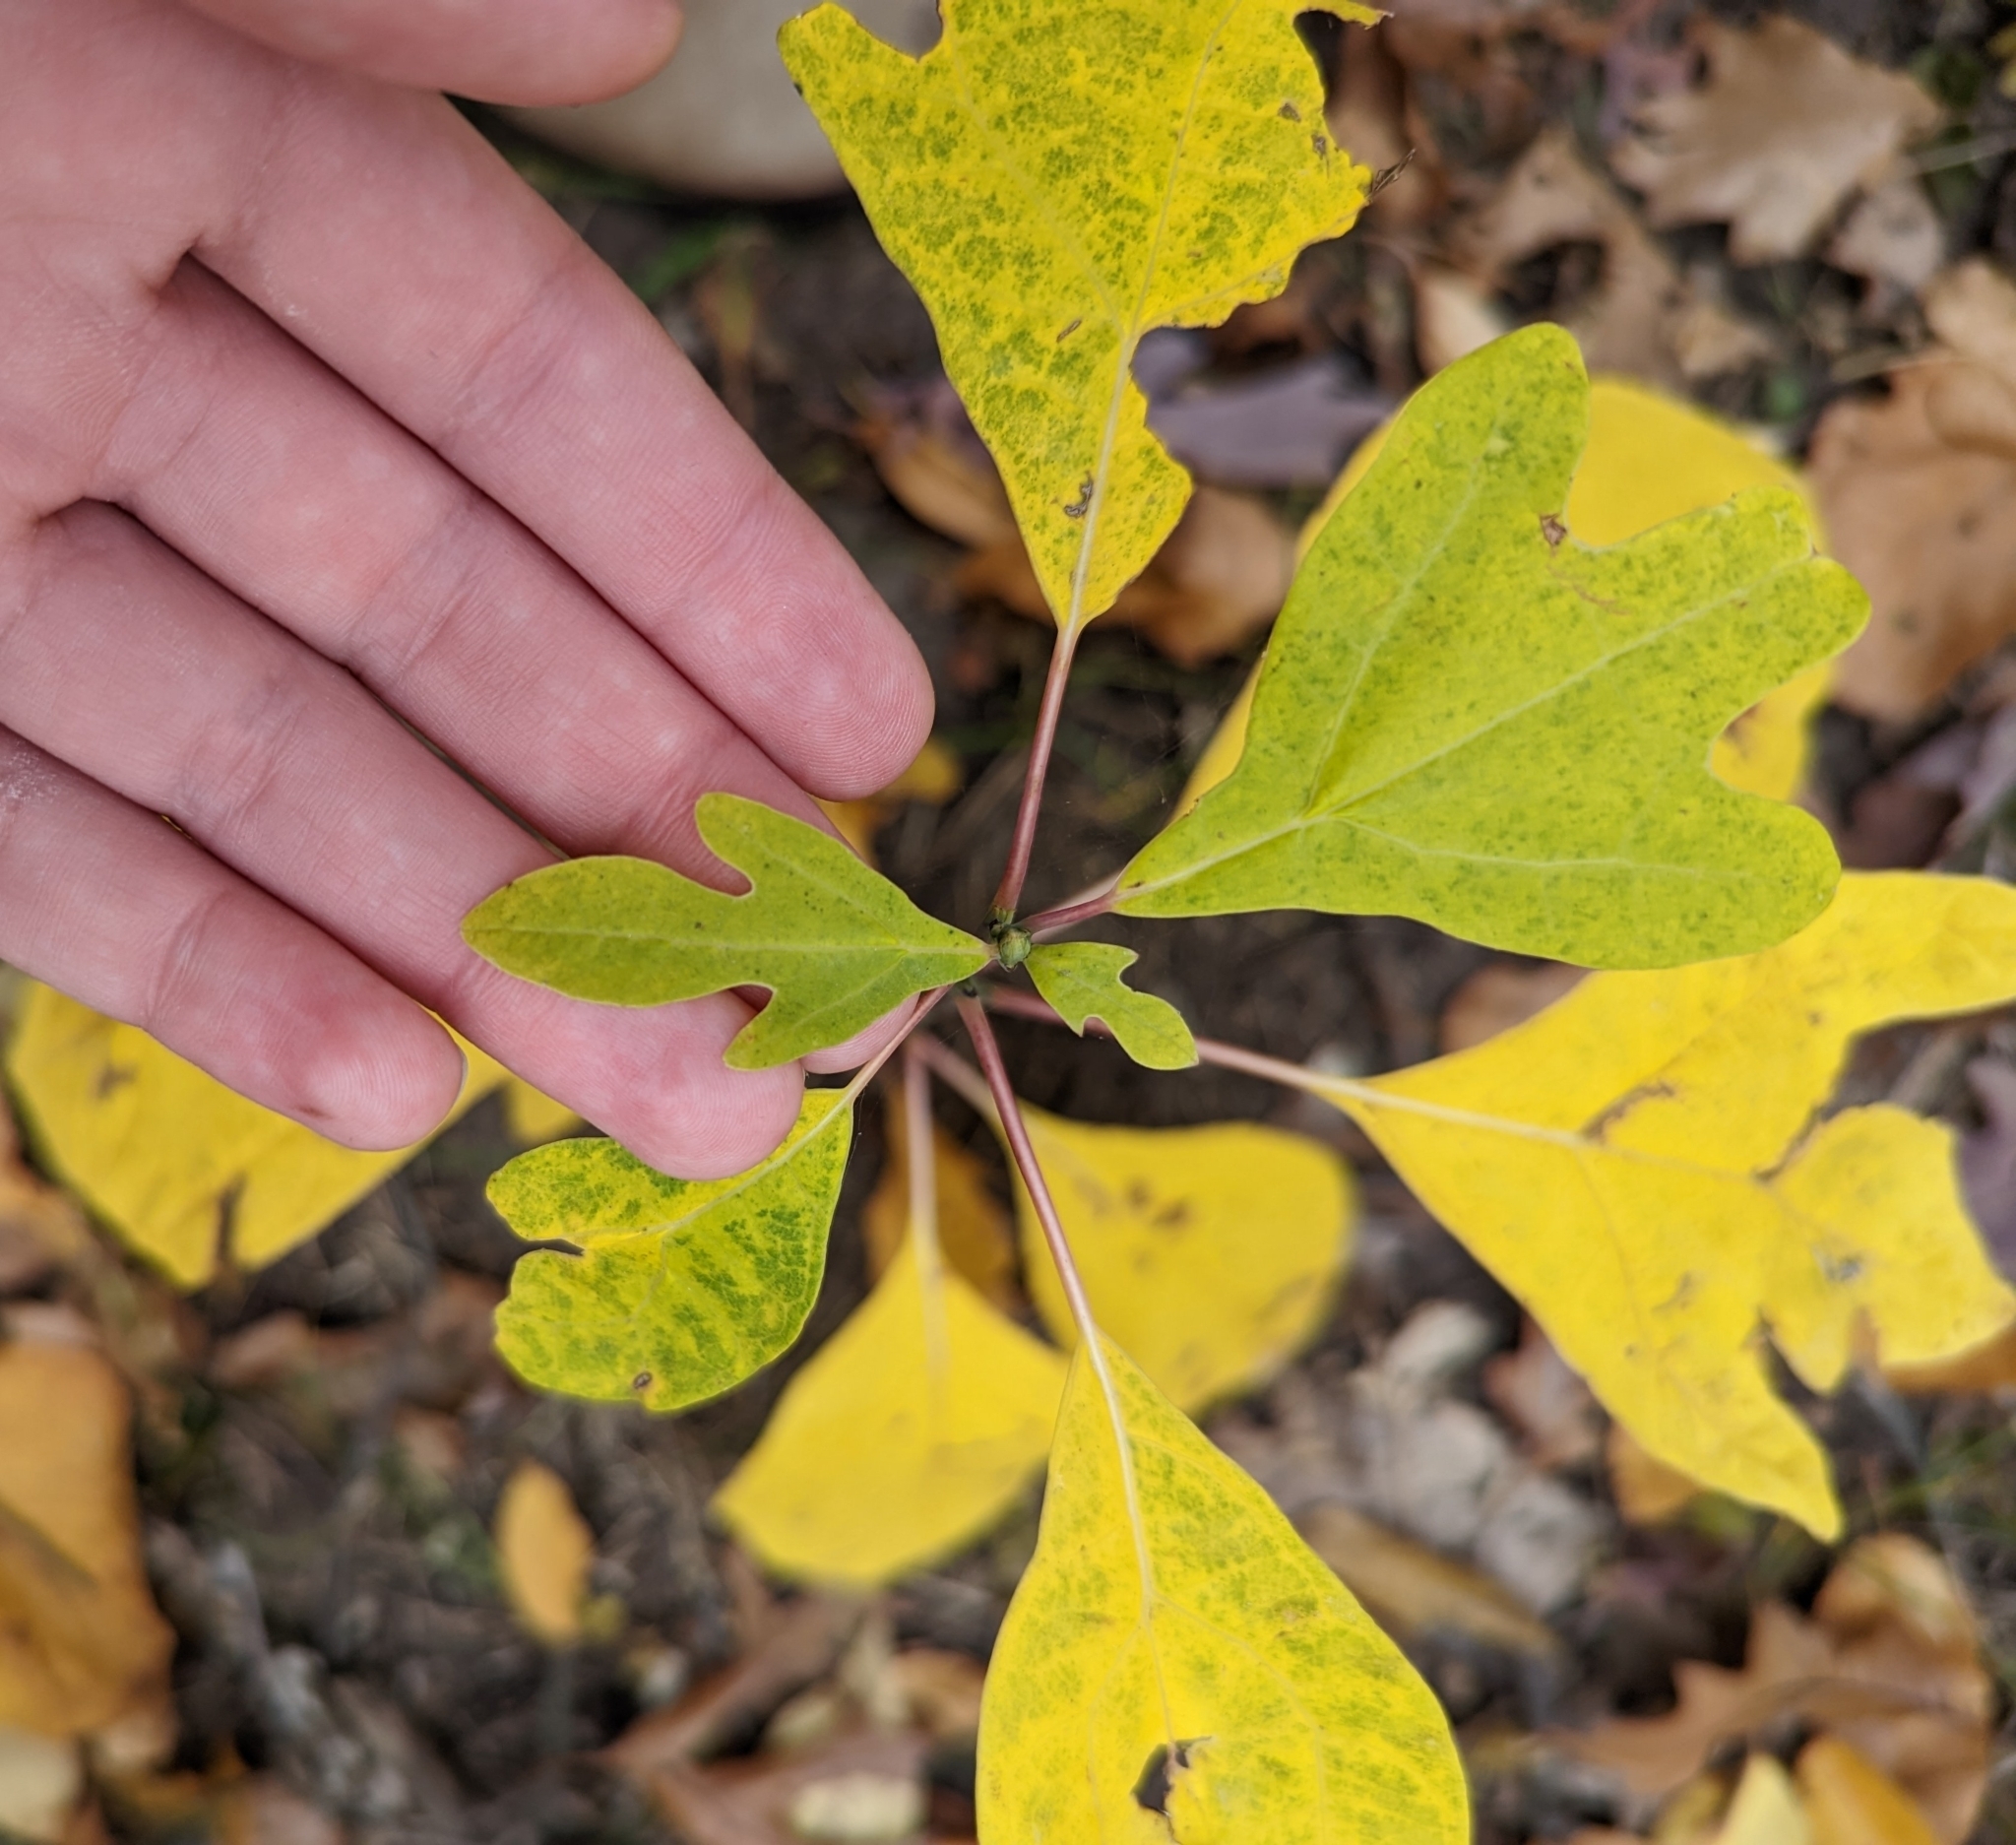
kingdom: Plantae
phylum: Tracheophyta
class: Magnoliopsida
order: Laurales
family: Lauraceae
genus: Sassafras
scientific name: Sassafras albidum
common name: Sassafras
